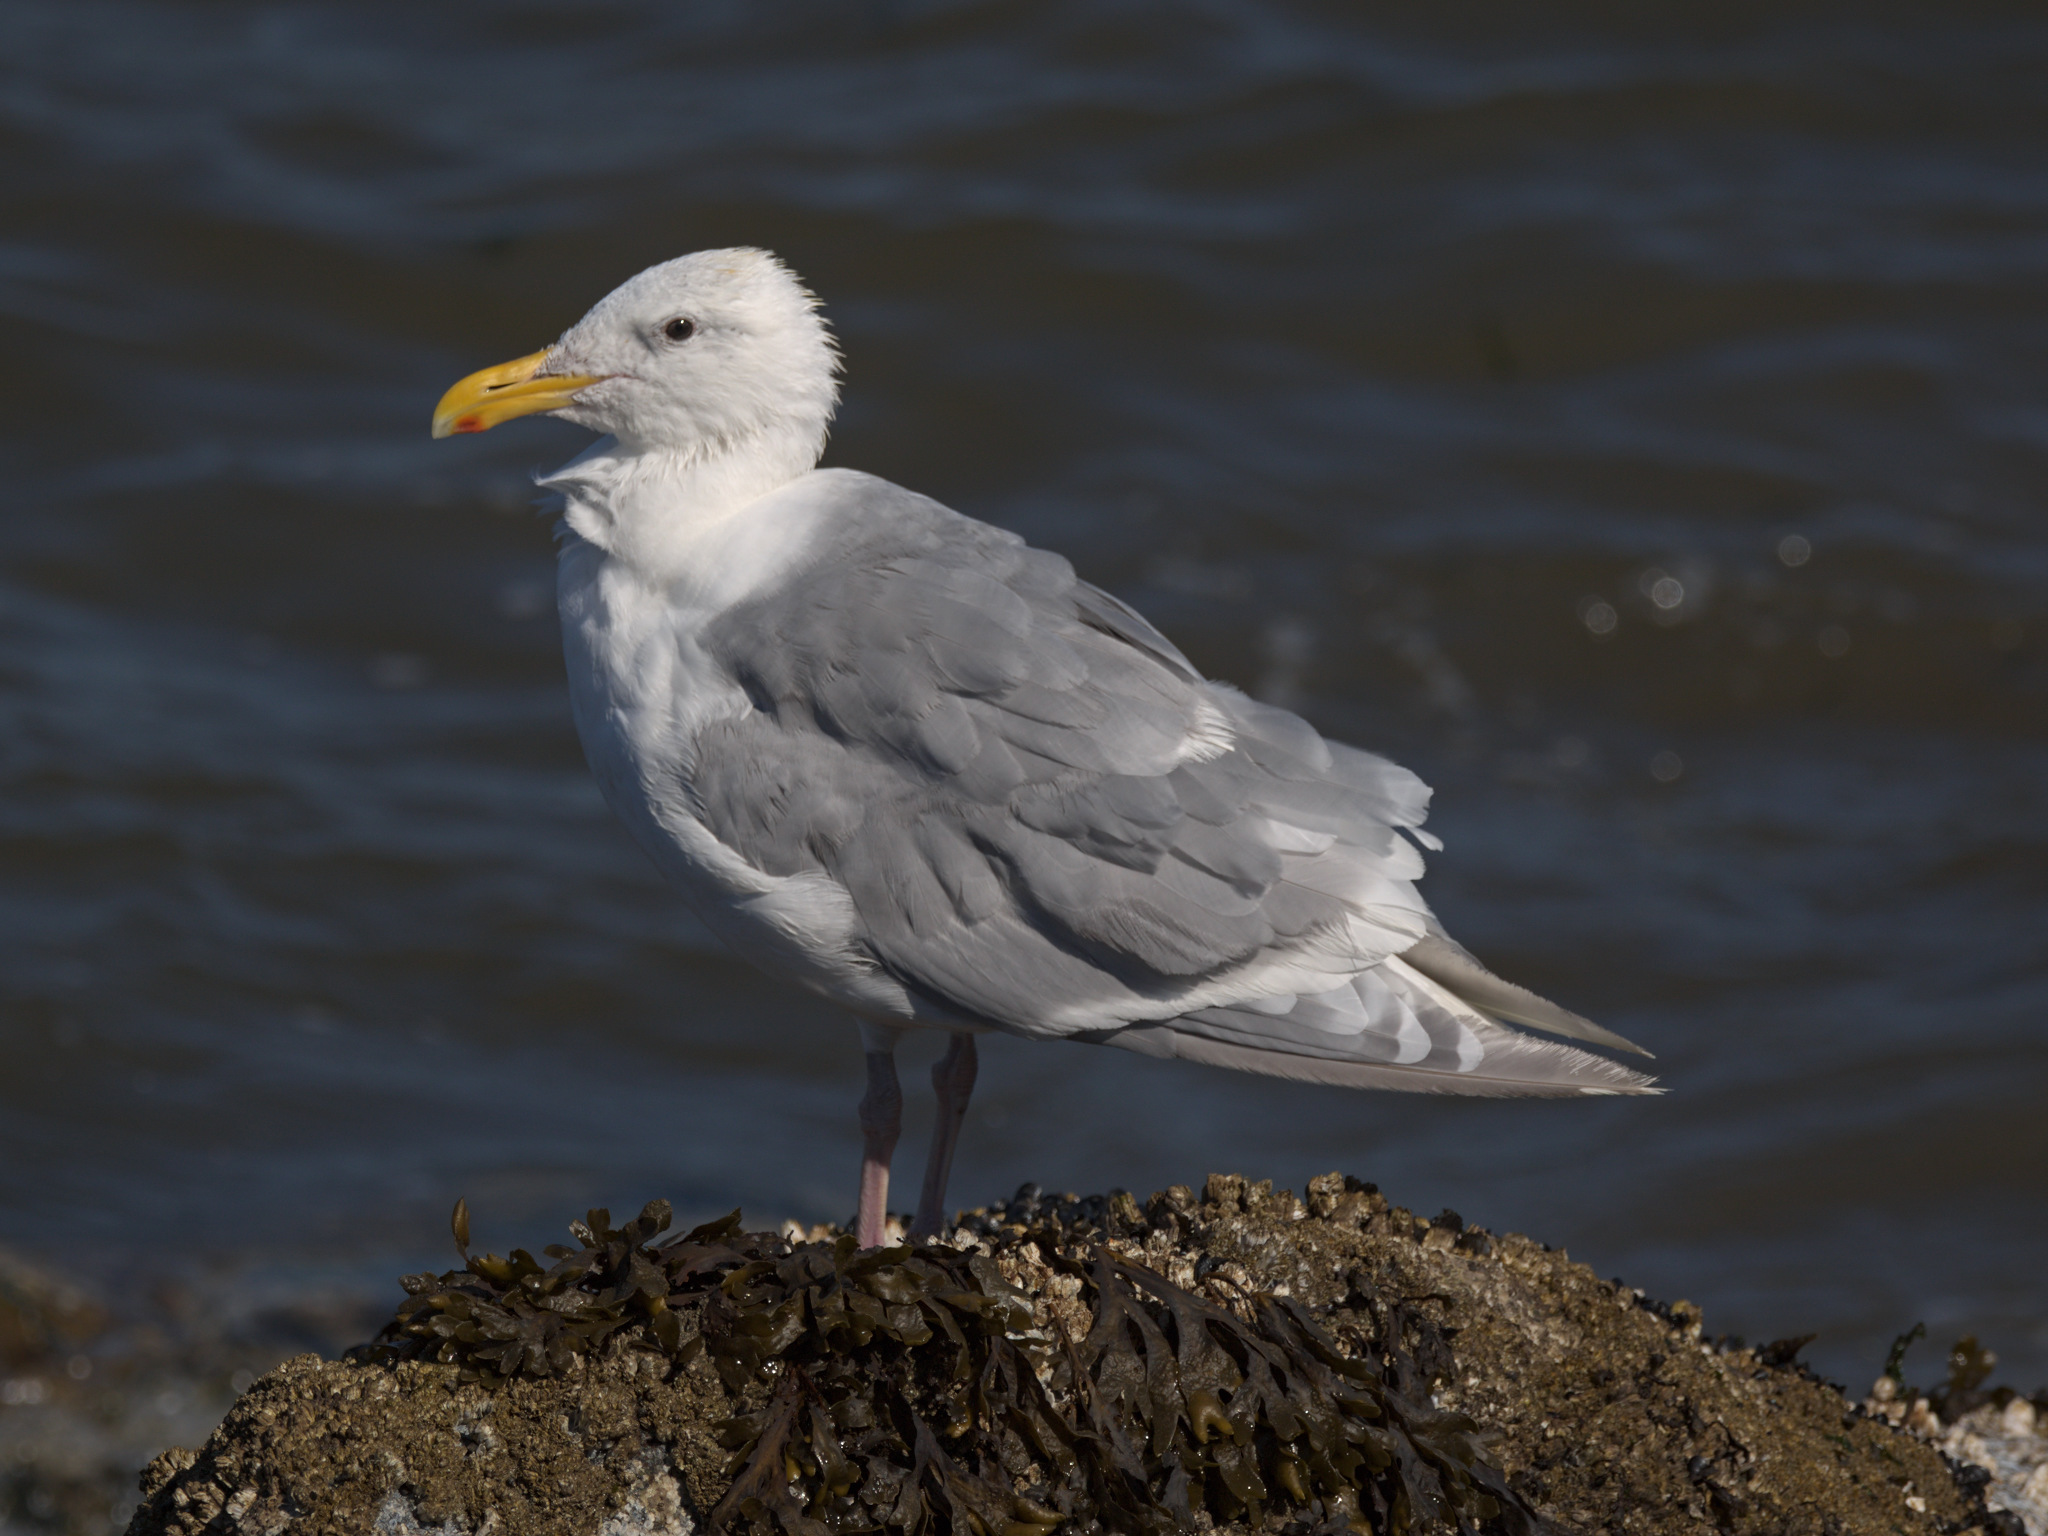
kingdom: Animalia
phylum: Chordata
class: Aves
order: Charadriiformes
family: Laridae
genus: Larus
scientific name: Larus glaucescens
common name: Glaucous-winged gull
